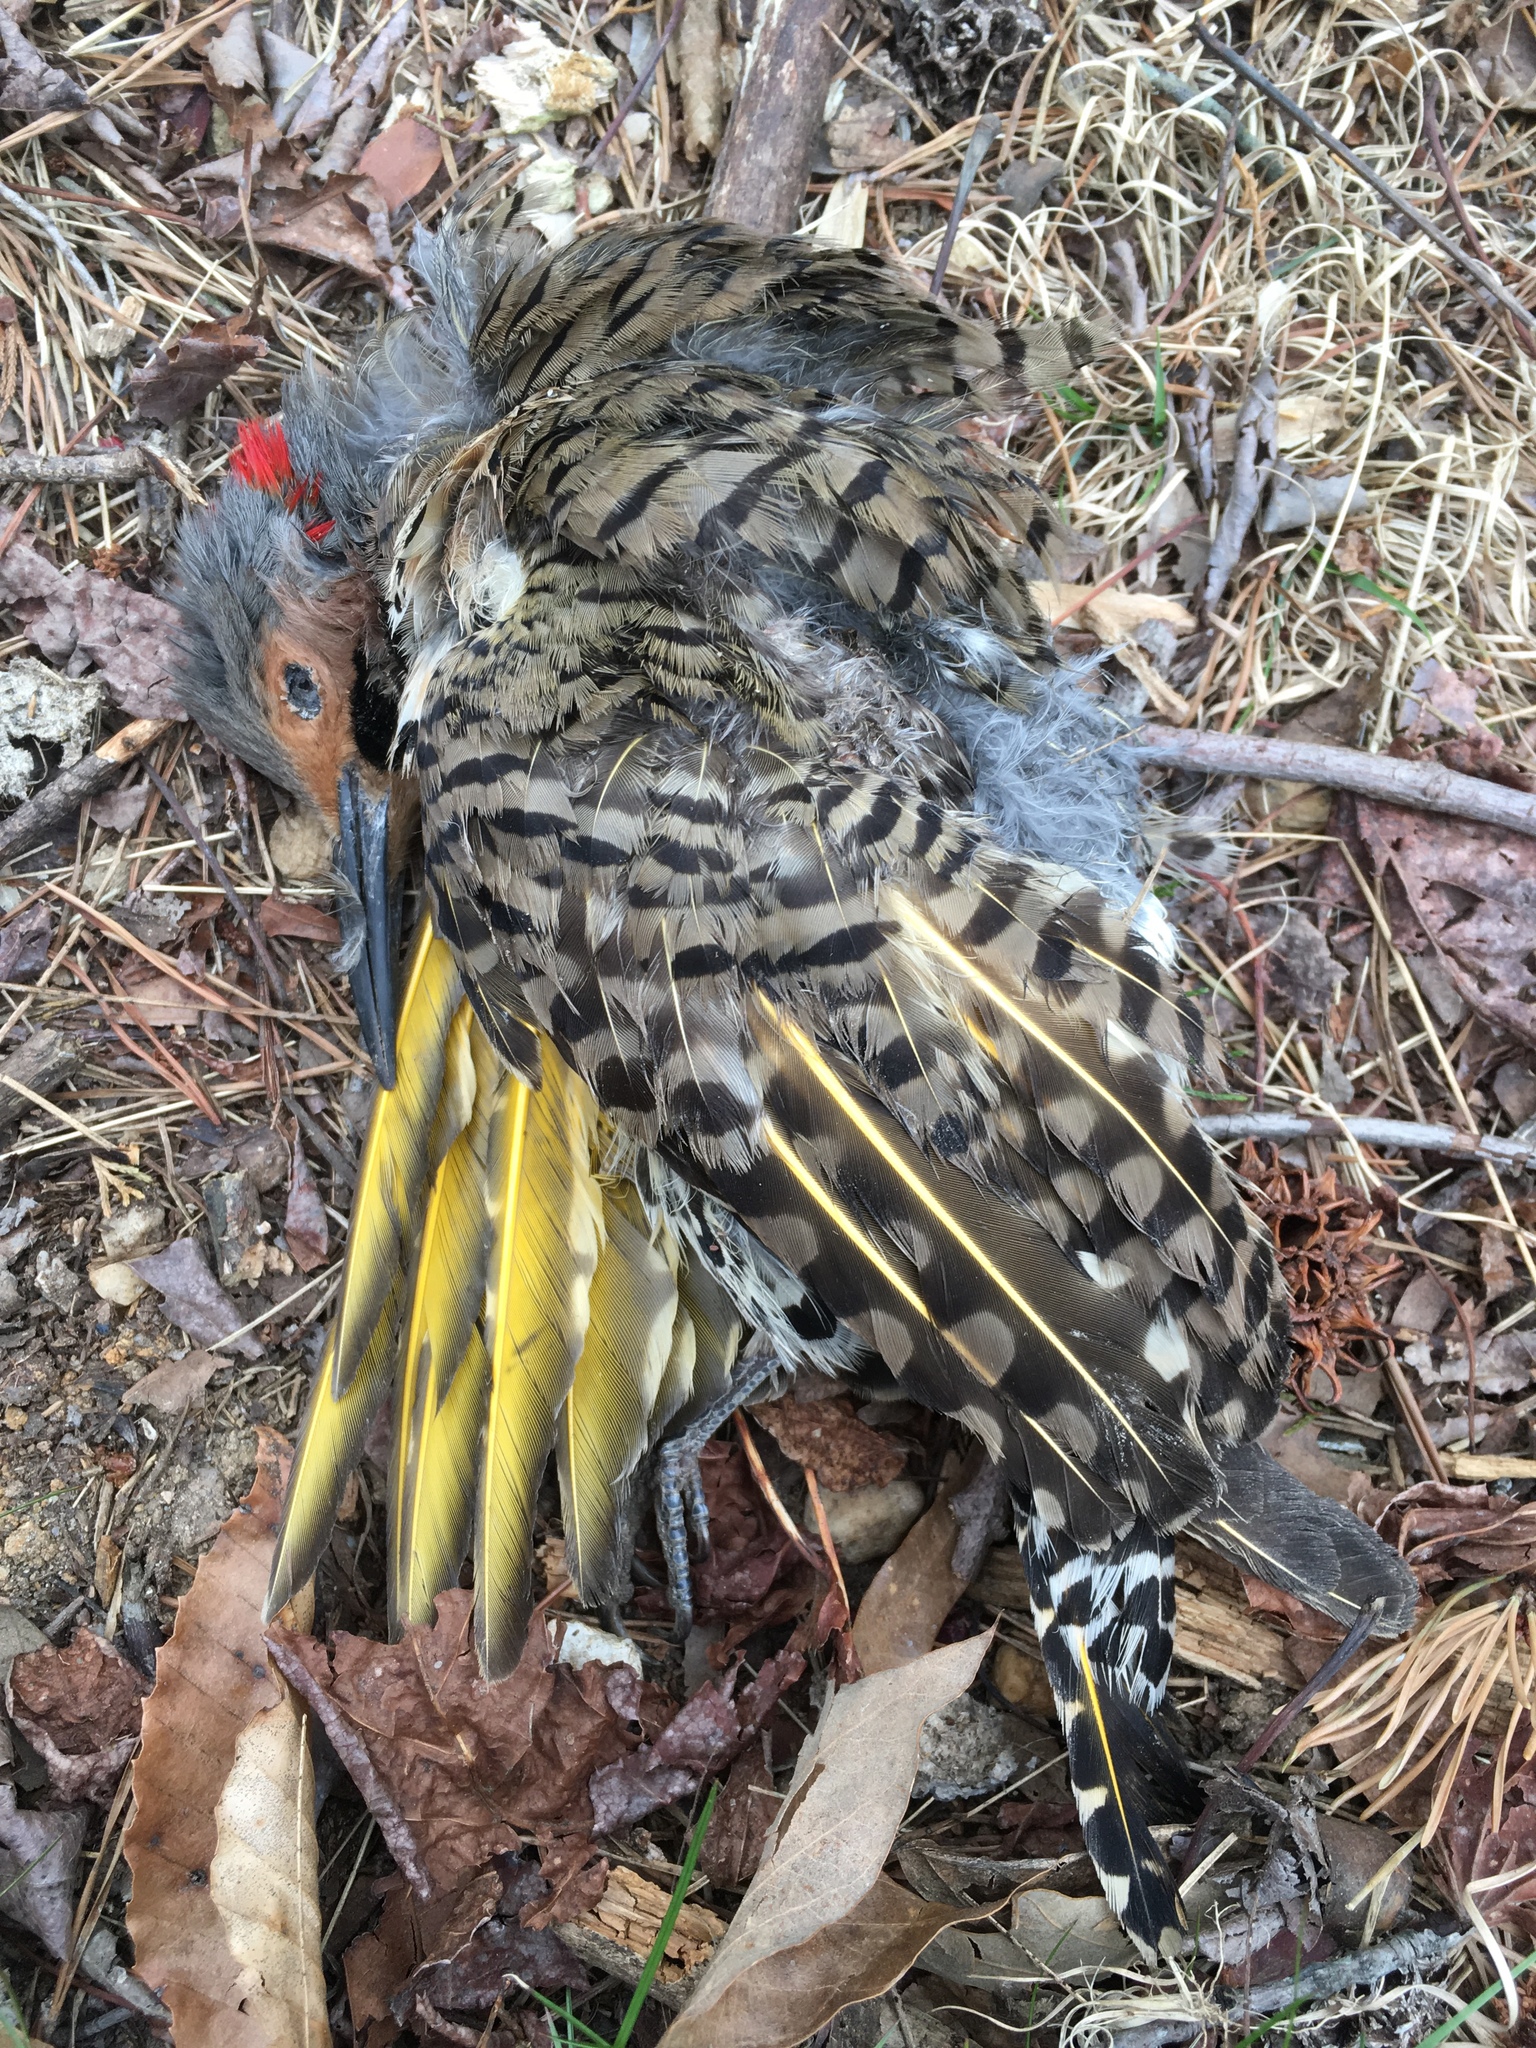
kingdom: Animalia
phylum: Chordata
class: Aves
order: Piciformes
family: Picidae
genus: Colaptes
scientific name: Colaptes auratus
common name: Northern flicker
